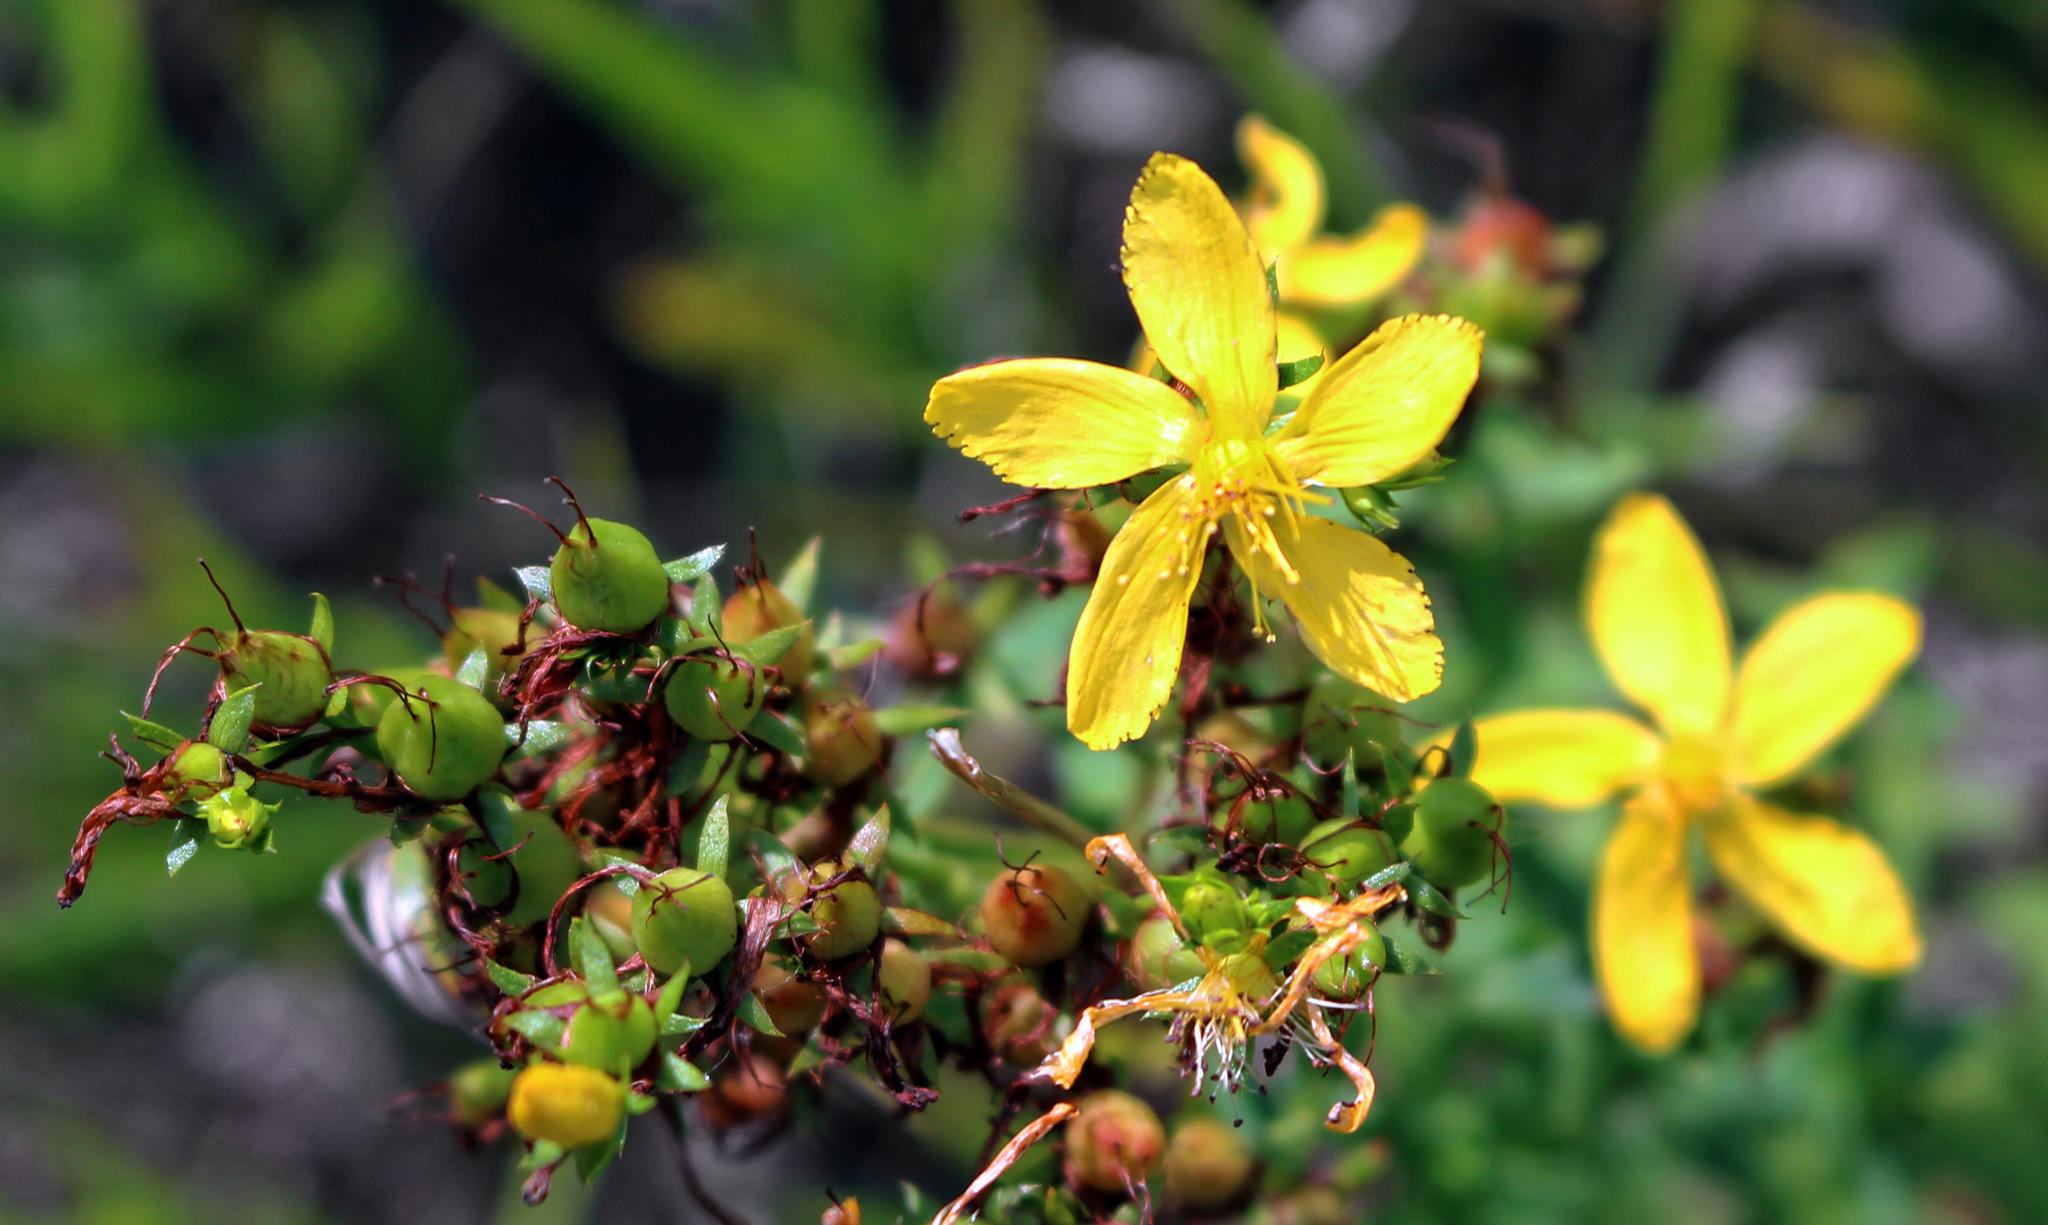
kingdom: Plantae
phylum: Tracheophyta
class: Magnoliopsida
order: Malpighiales
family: Hypericaceae
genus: Hypericum
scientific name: Hypericum perforatum
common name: Common st. johnswort
